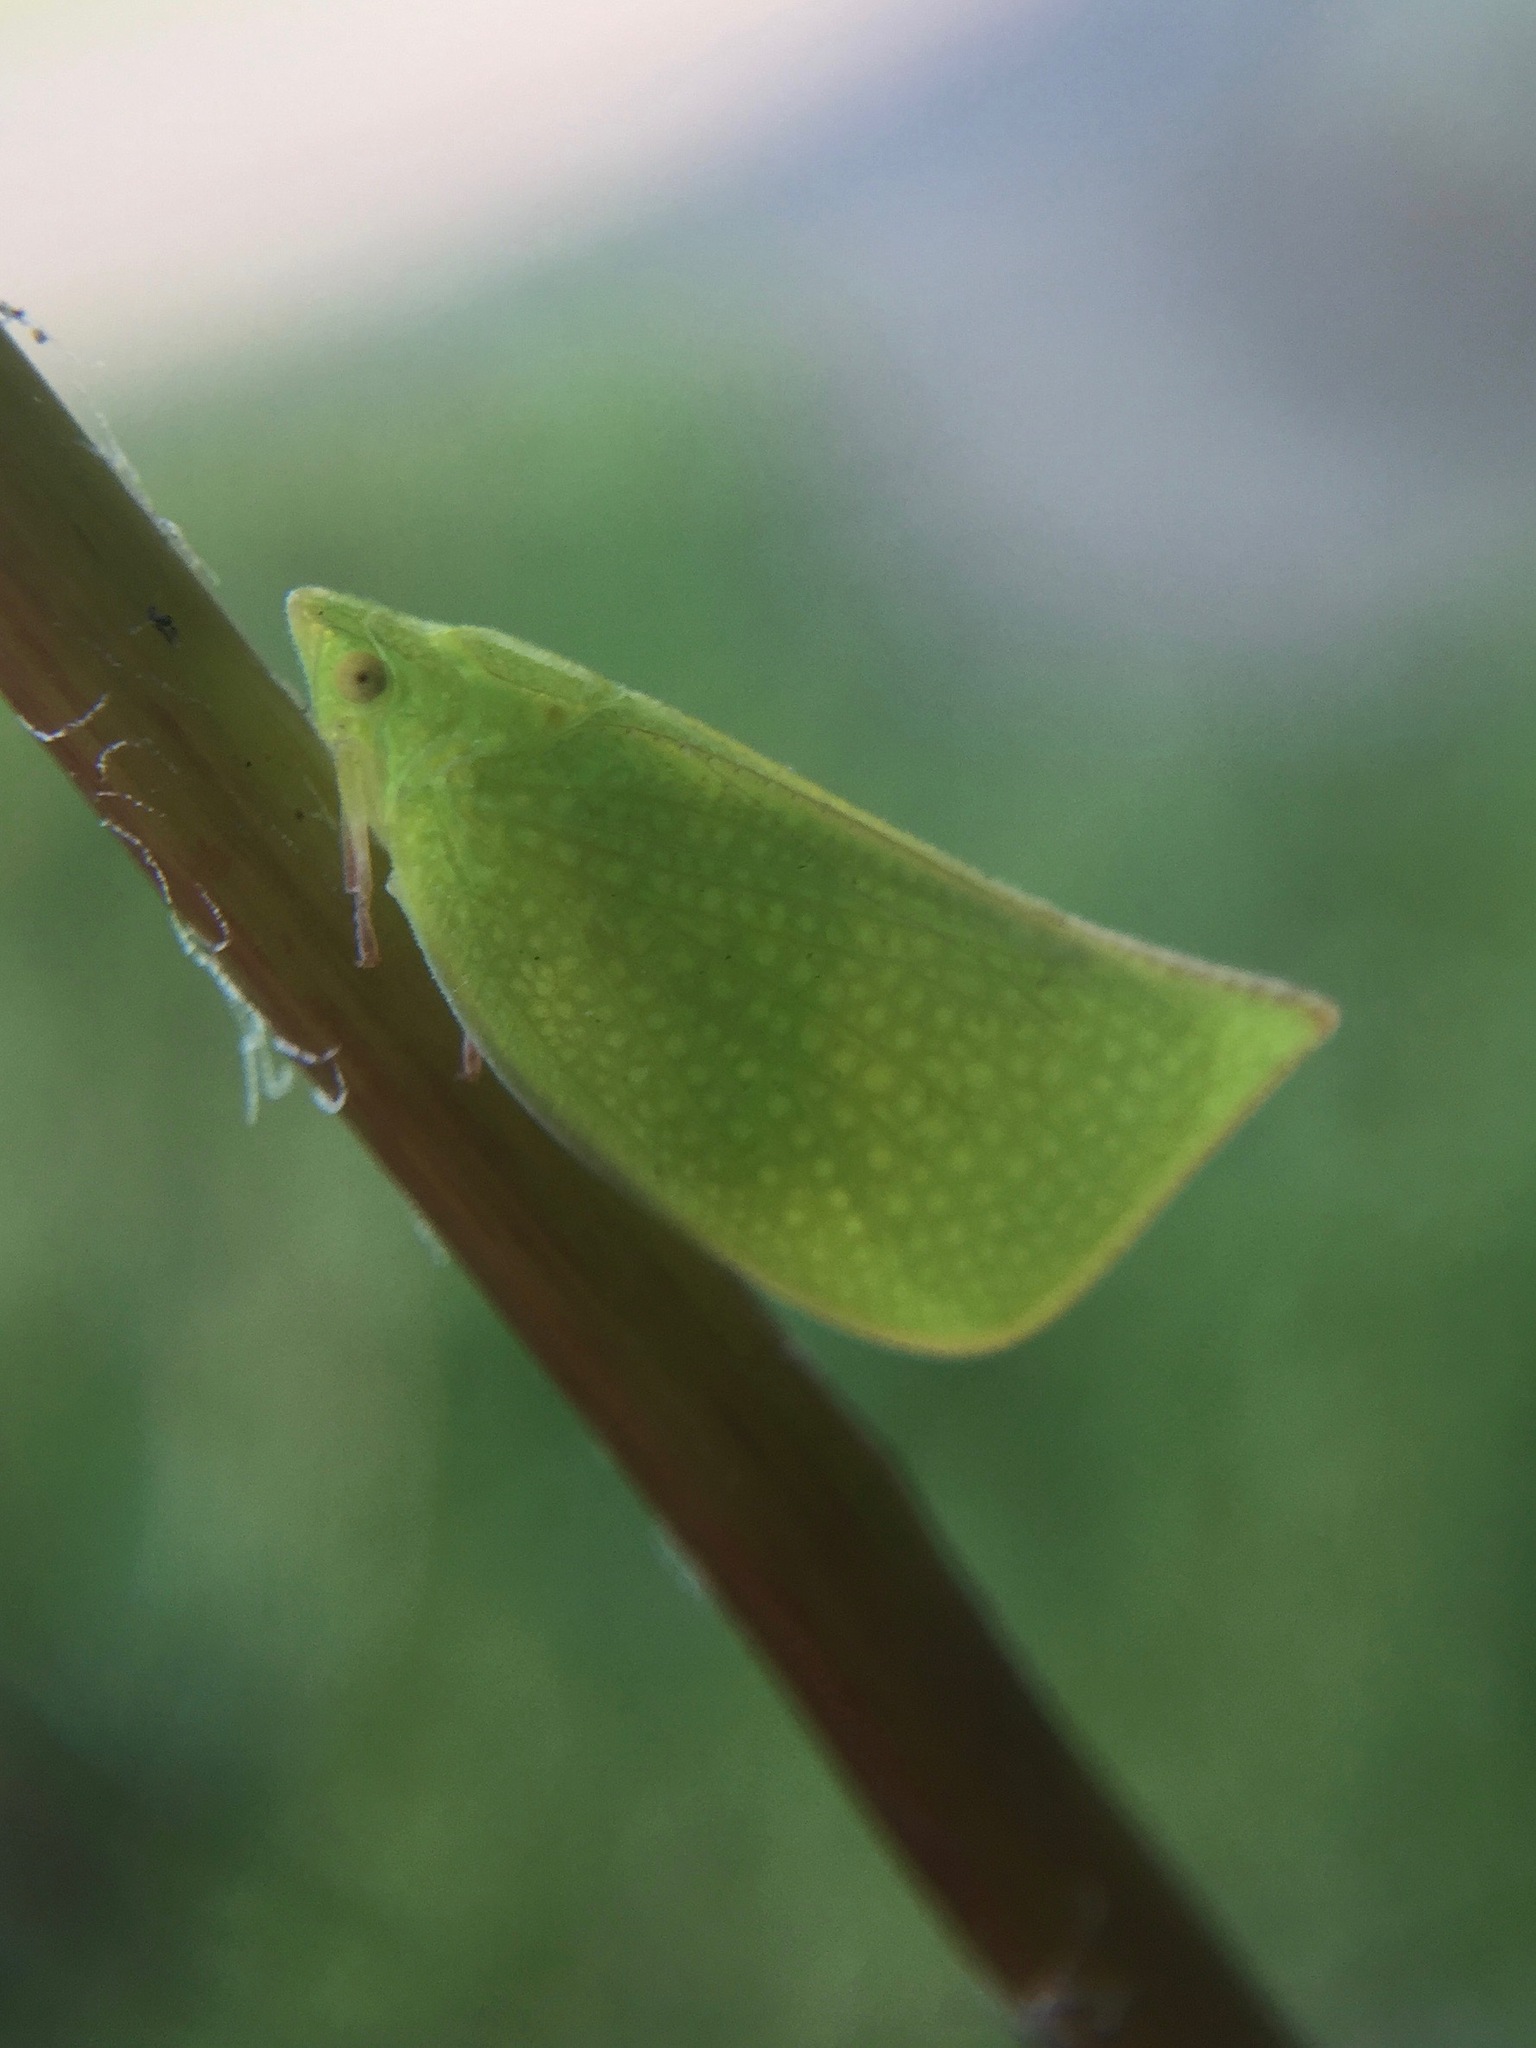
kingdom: Animalia
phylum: Arthropoda
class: Insecta
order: Hemiptera
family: Flatidae
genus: Siphanta
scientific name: Siphanta acuta
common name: Torpedo bug
